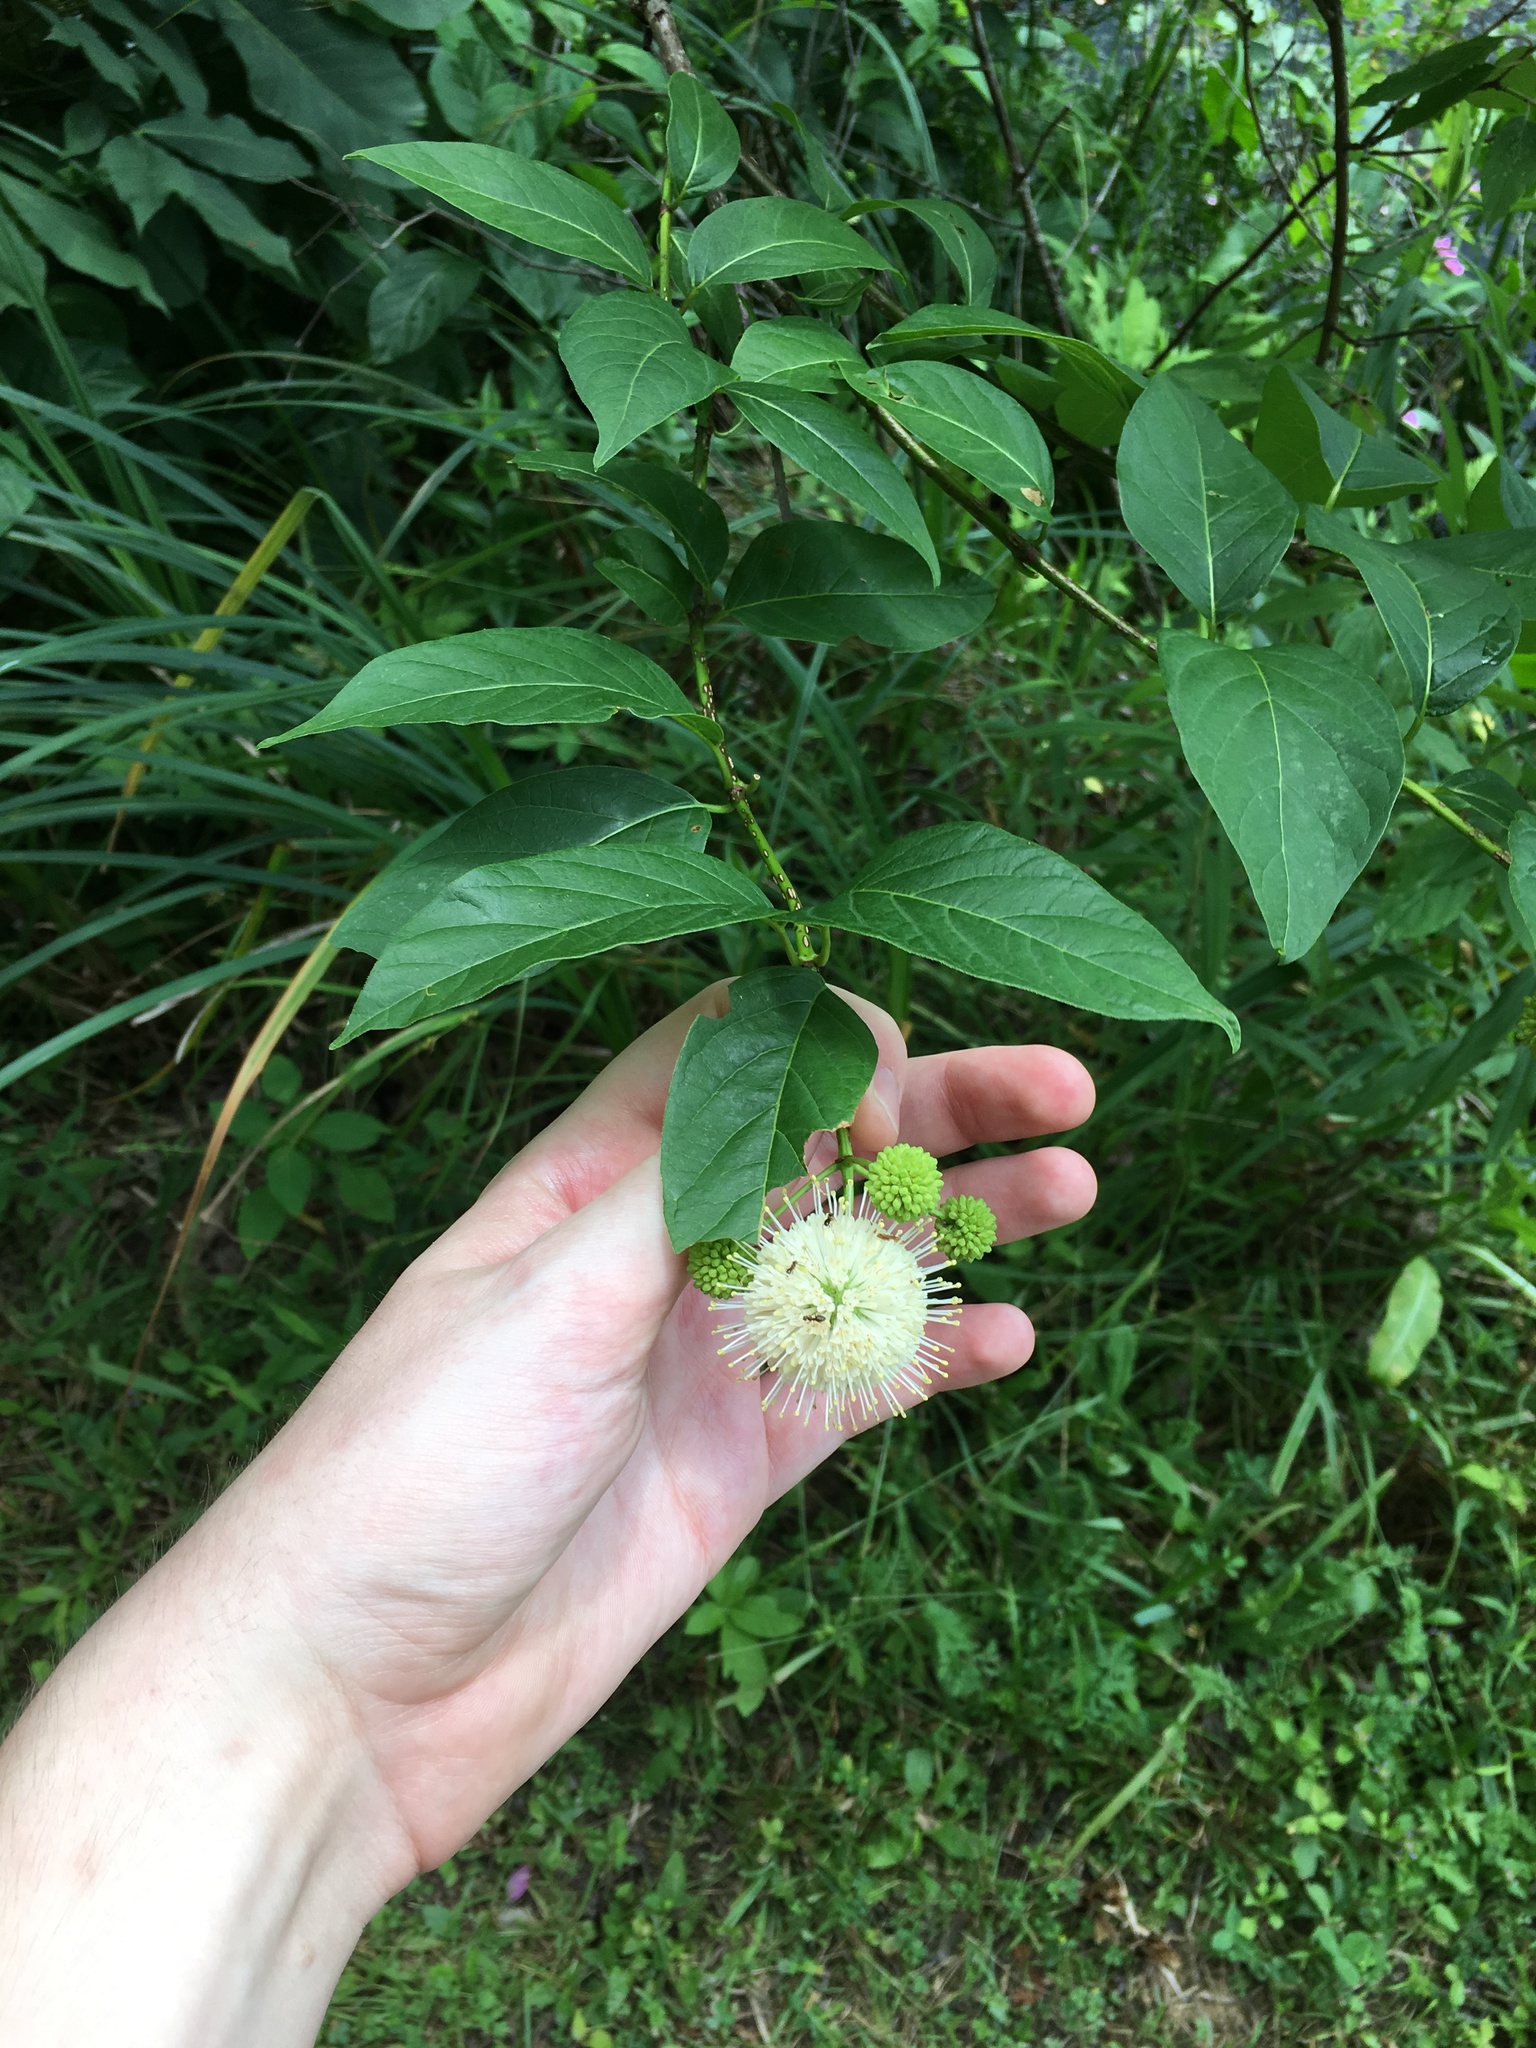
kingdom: Plantae
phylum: Tracheophyta
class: Magnoliopsida
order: Gentianales
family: Rubiaceae
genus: Cephalanthus
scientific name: Cephalanthus occidentalis
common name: Button-willow
